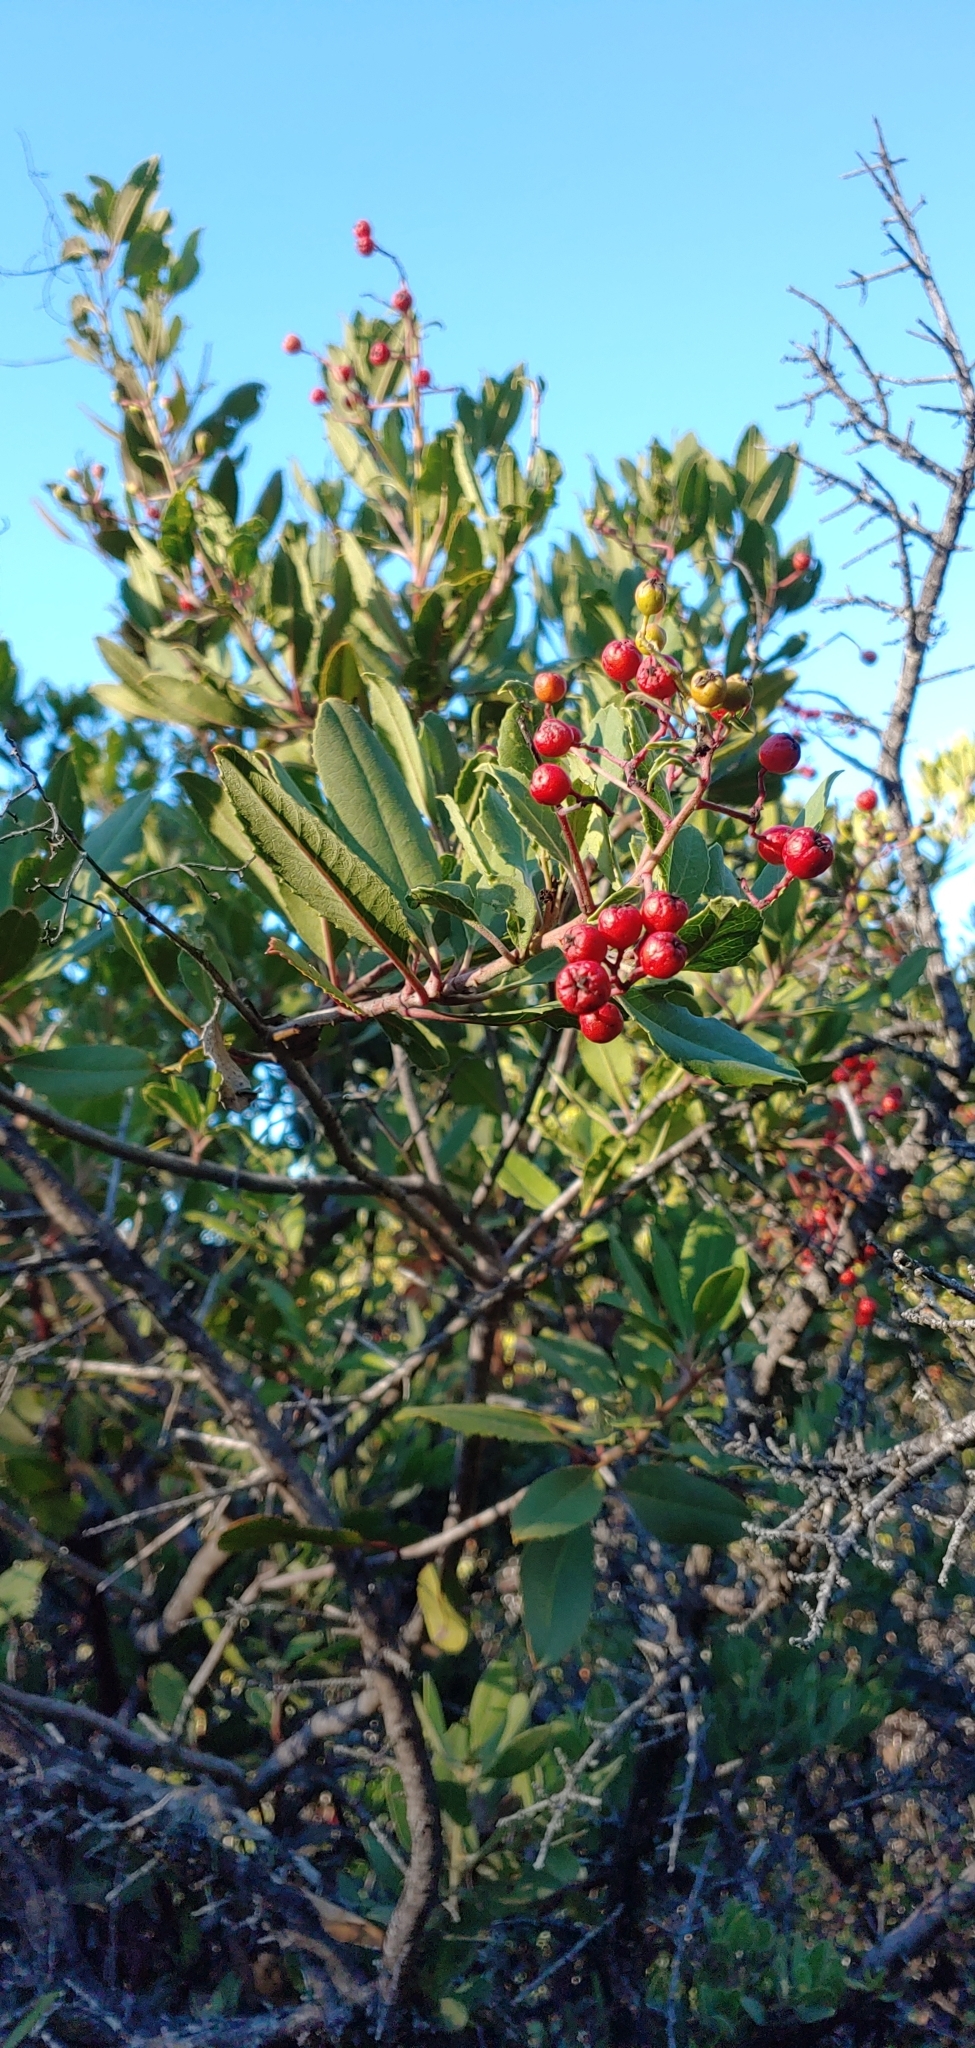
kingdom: Plantae
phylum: Tracheophyta
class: Magnoliopsida
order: Rosales
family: Rosaceae
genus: Heteromeles
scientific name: Heteromeles arbutifolia
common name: California-holly
